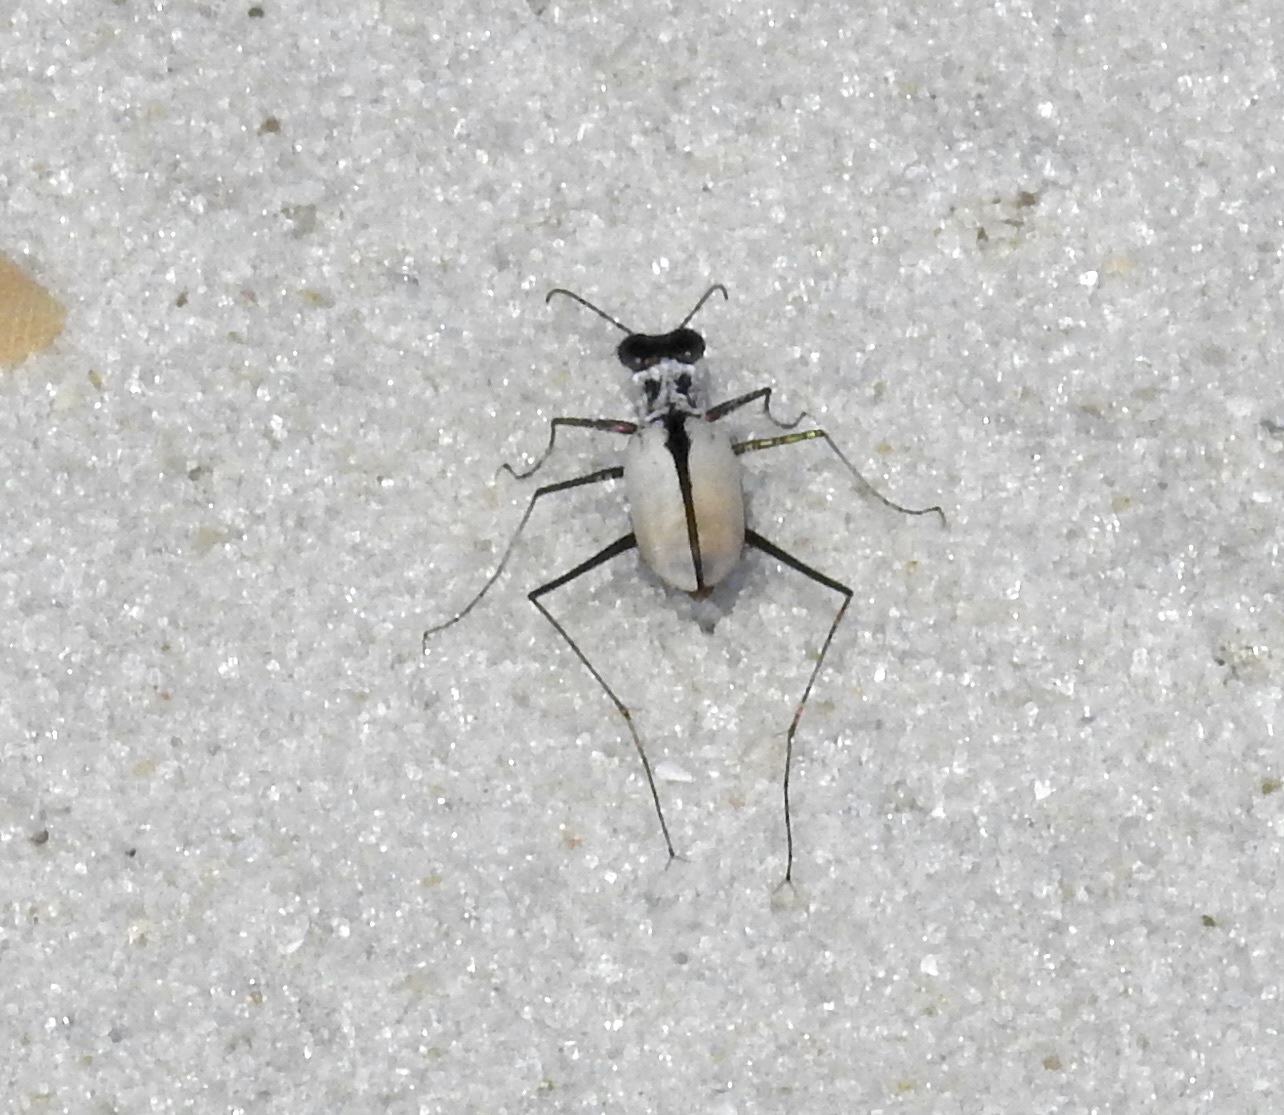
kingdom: Animalia
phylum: Arthropoda
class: Insecta
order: Coleoptera
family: Carabidae
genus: Habroscelimorpha
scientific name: Habroscelimorpha dorsalis
